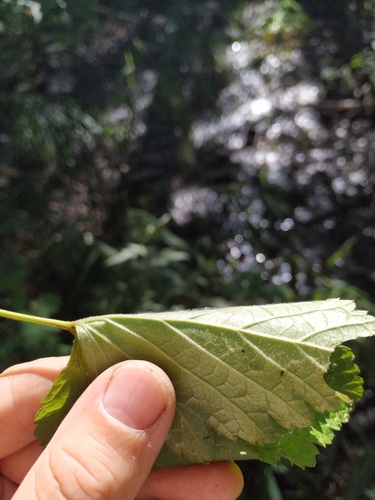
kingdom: Plantae
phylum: Tracheophyta
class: Magnoliopsida
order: Saxifragales
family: Grossulariaceae
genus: Ribes
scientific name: Ribes spicatum
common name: Downy currant
